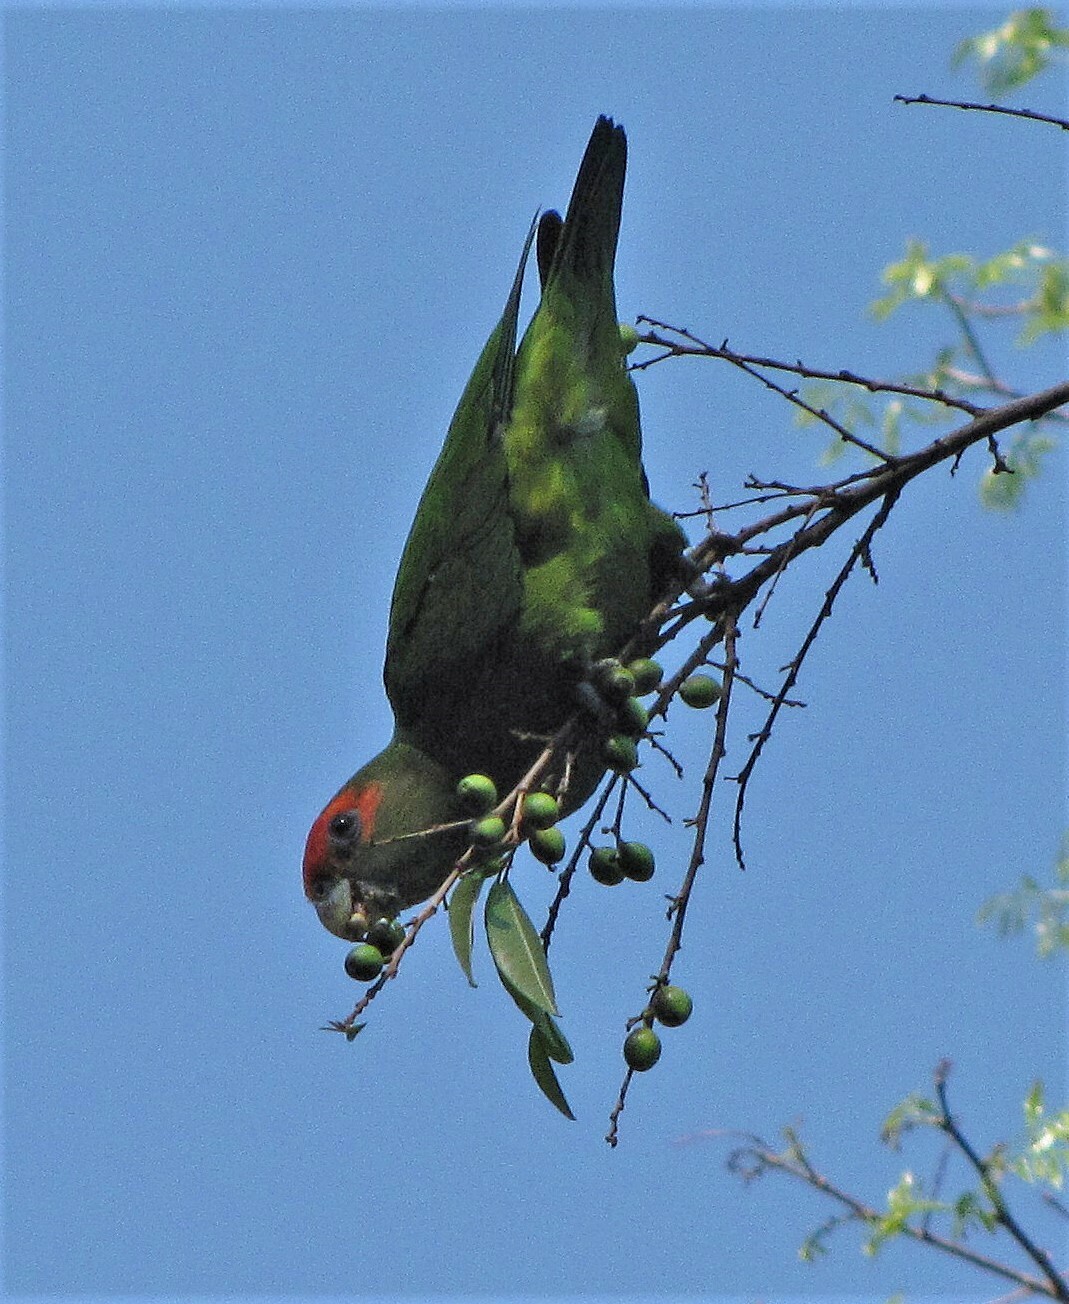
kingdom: Animalia
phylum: Chordata
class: Aves
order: Psittaciformes
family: Psittacidae
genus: Pionopsitta
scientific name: Pionopsitta pileata
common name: Pileated parrot
